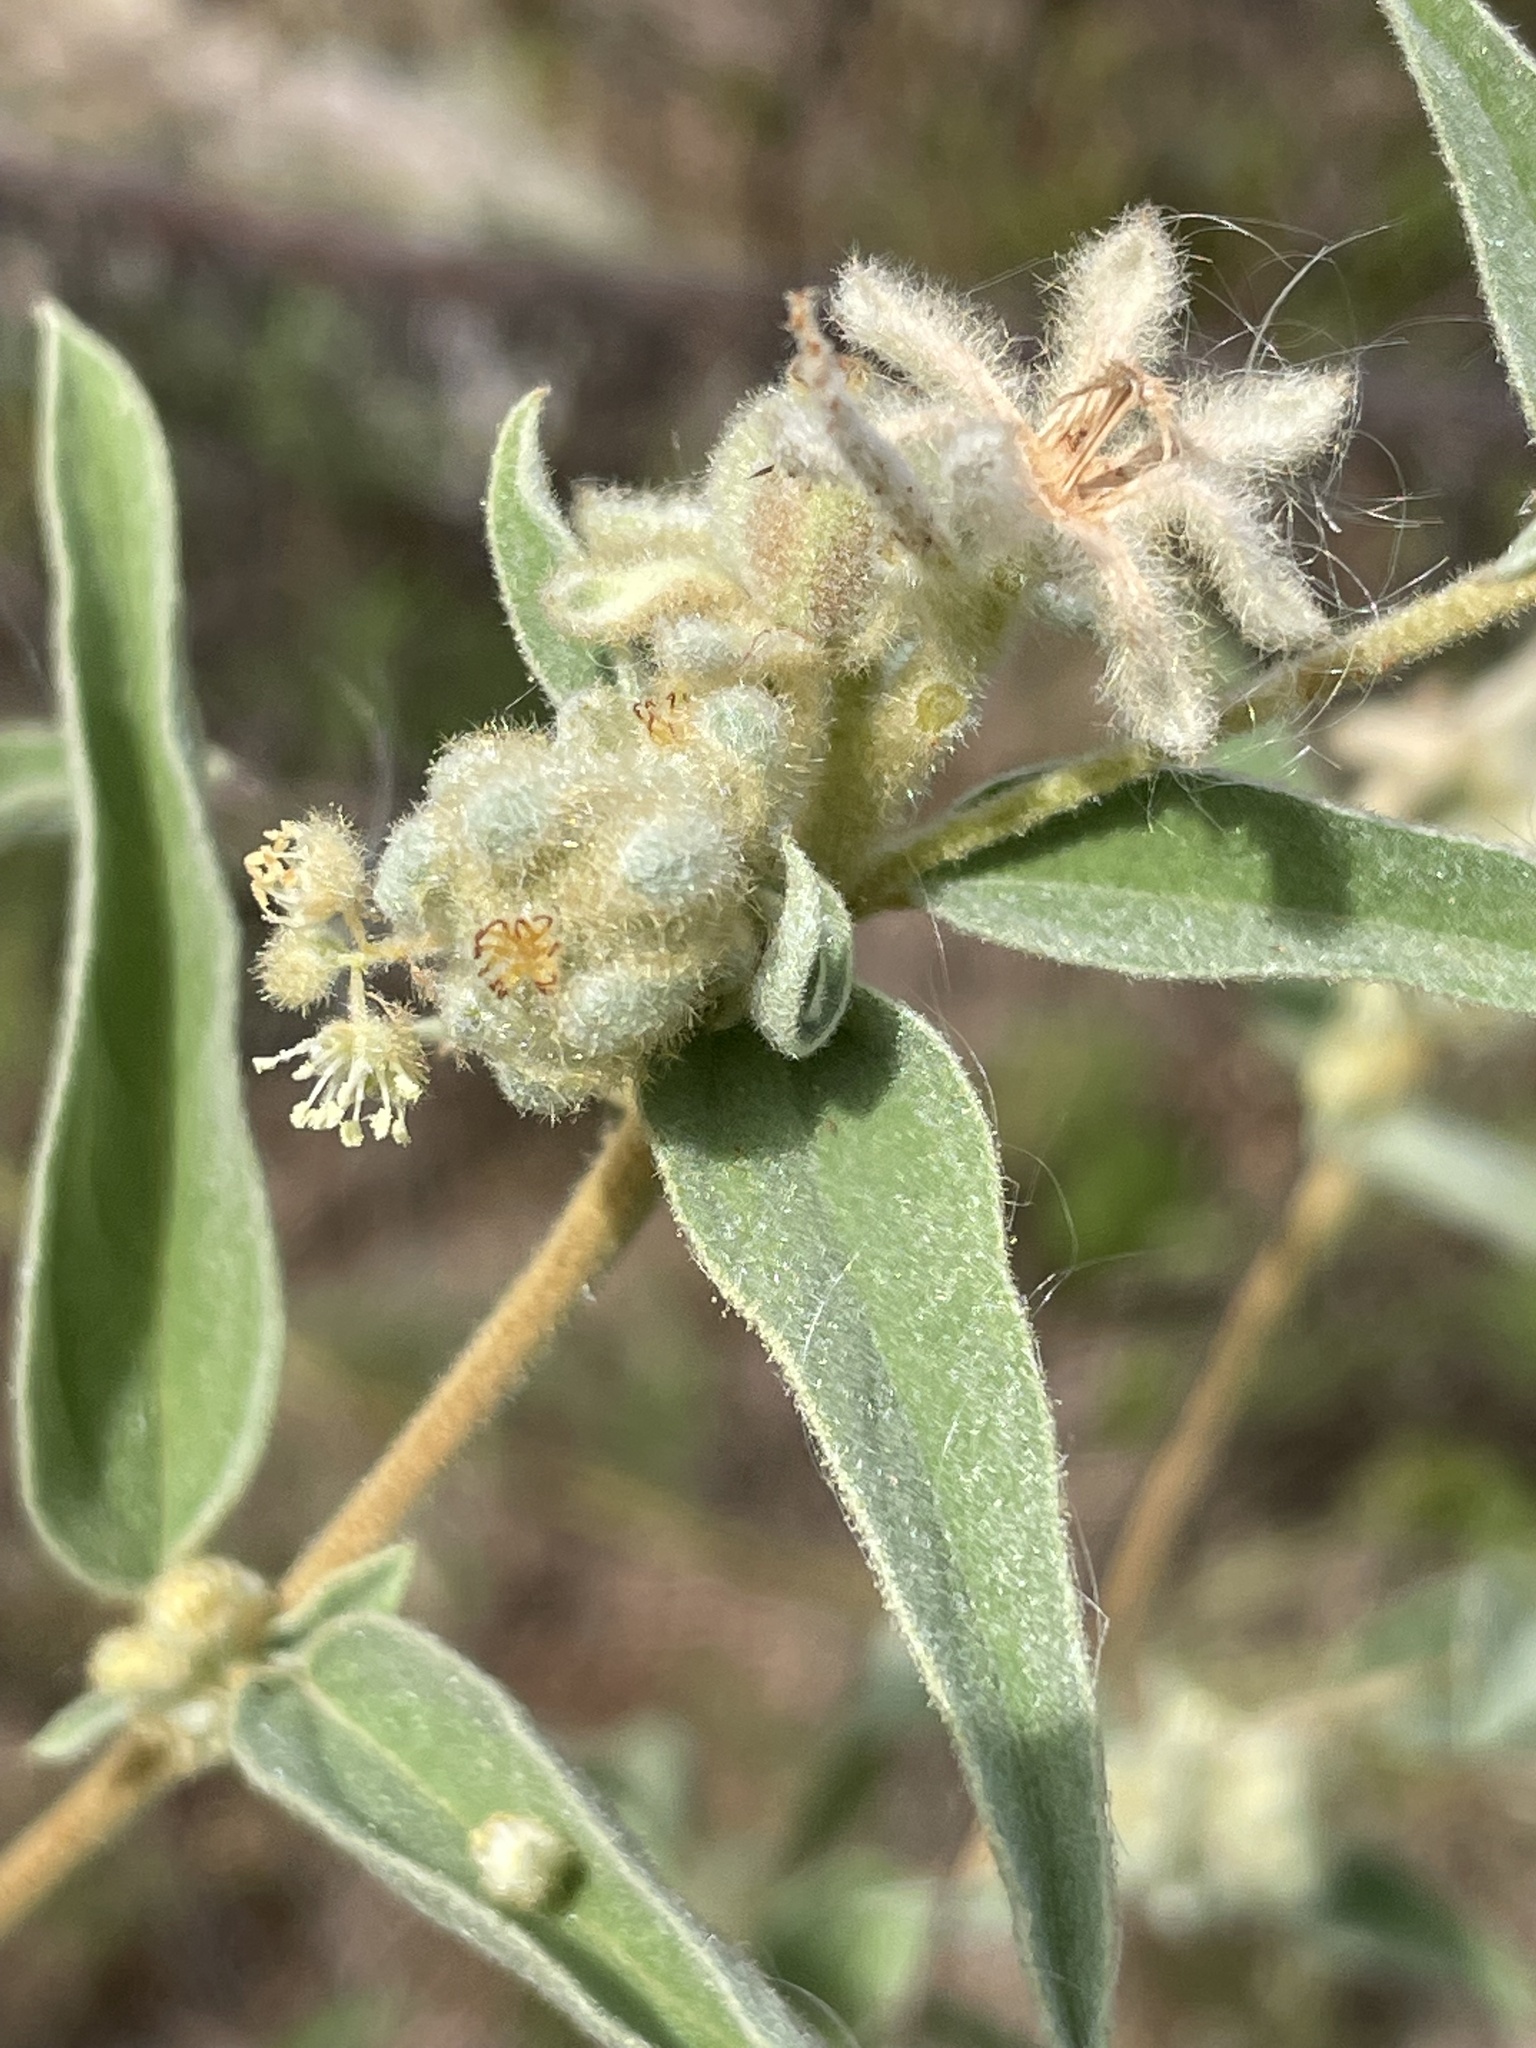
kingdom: Plantae
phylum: Tracheophyta
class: Magnoliopsida
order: Malpighiales
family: Euphorbiaceae
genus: Croton
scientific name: Croton lindheimeri
